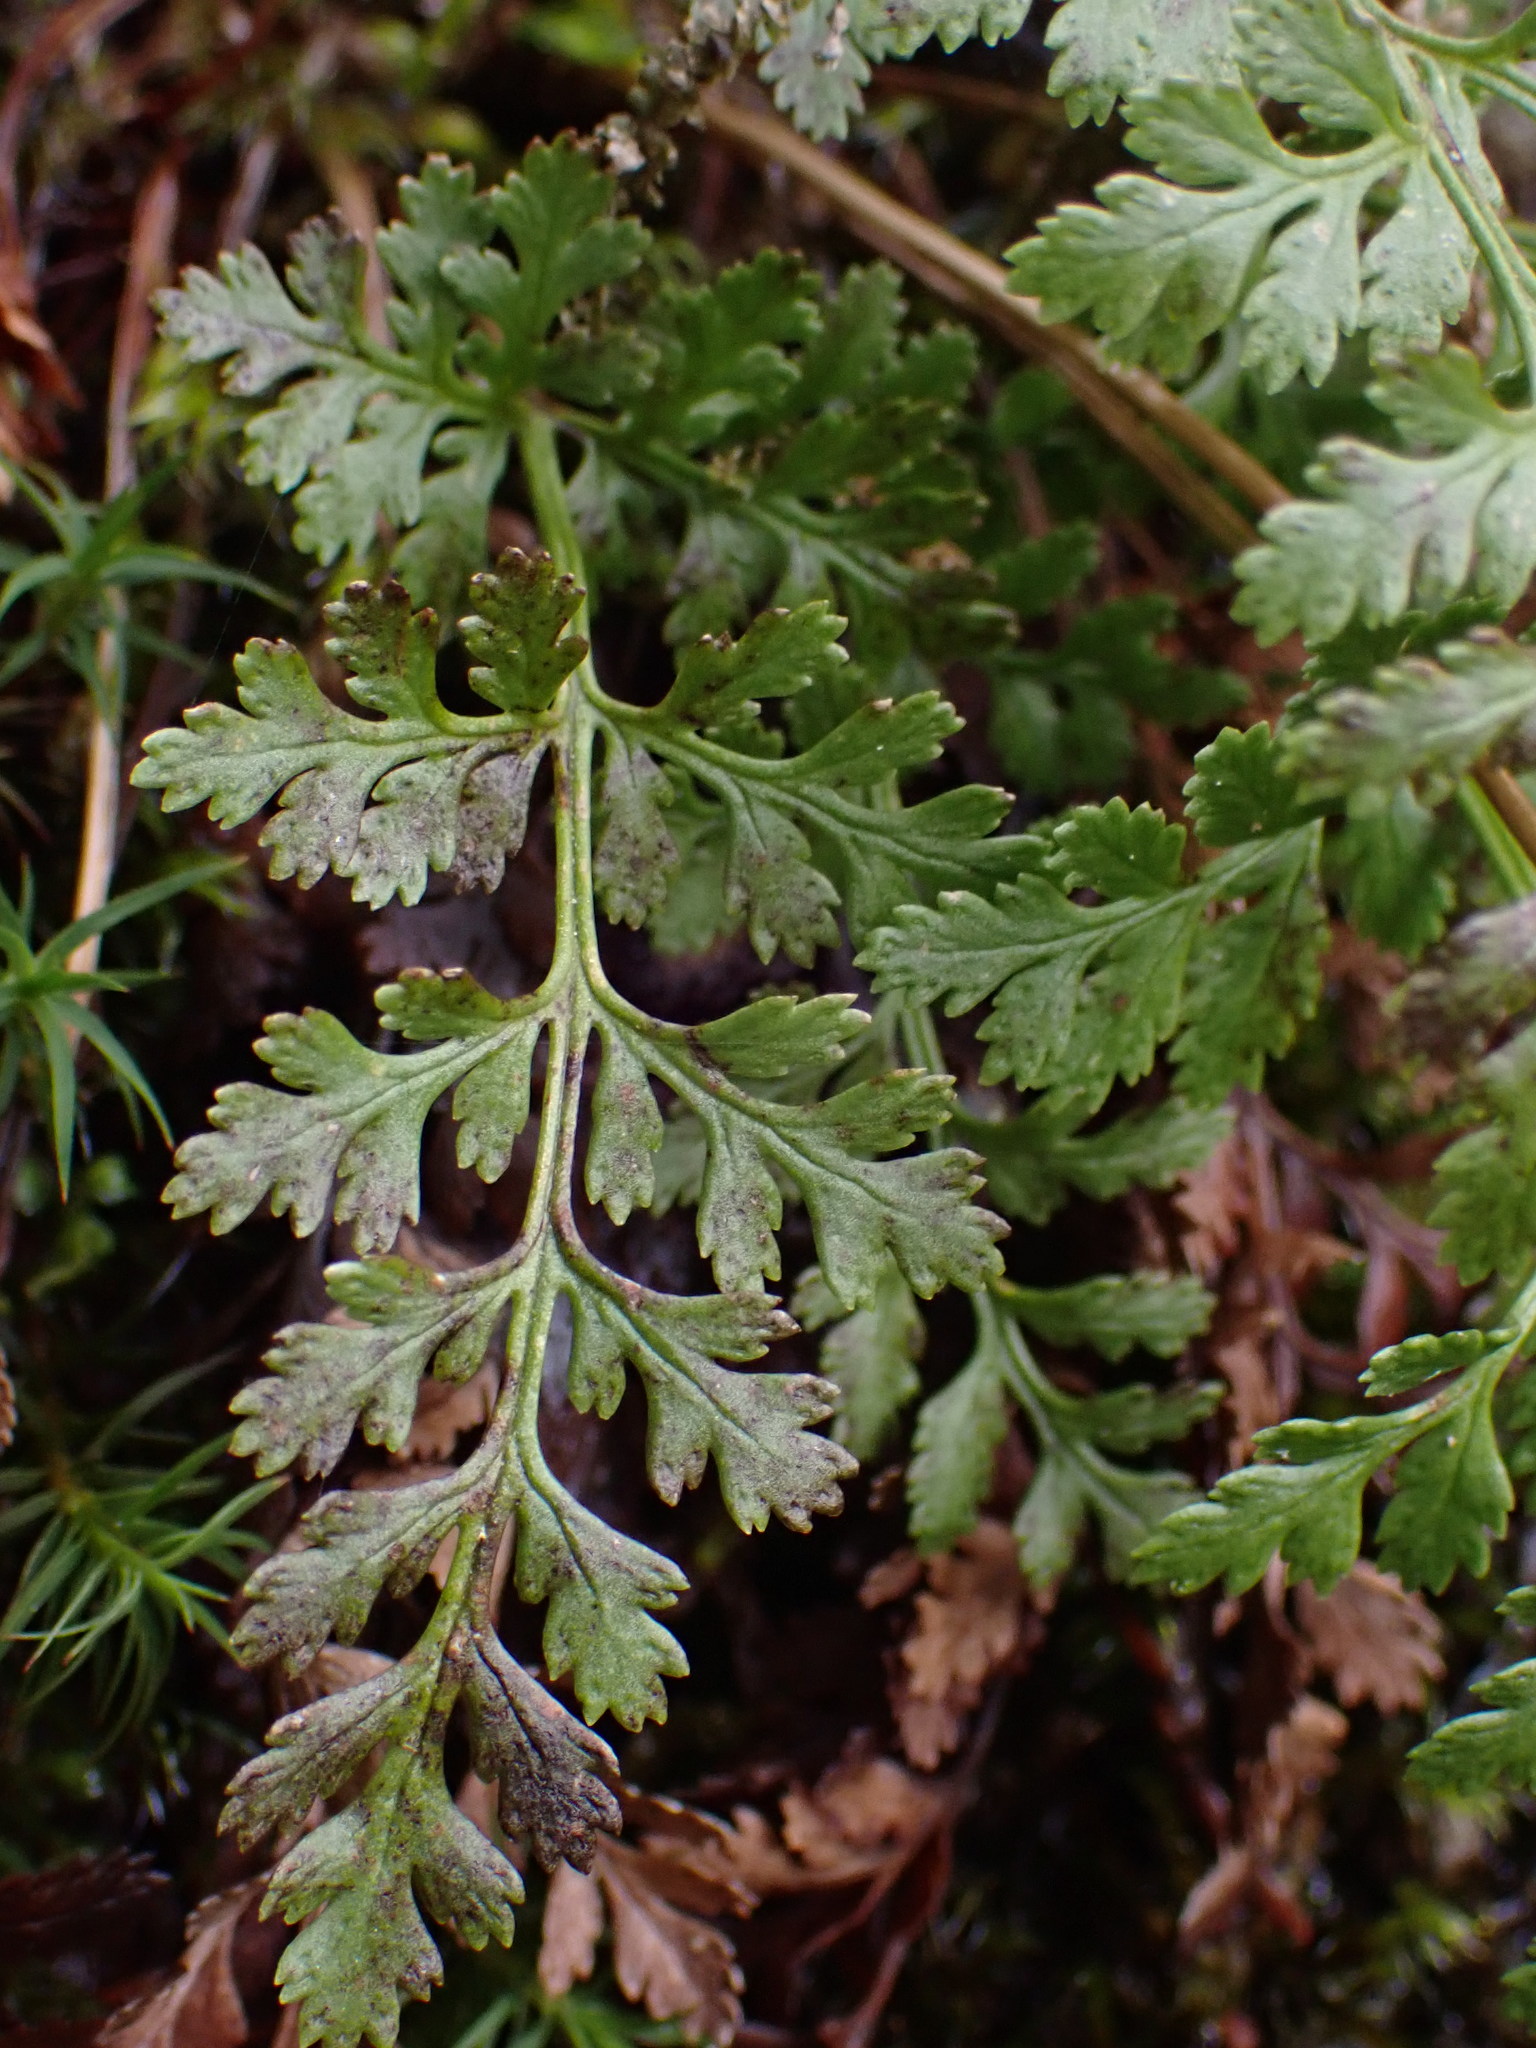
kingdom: Plantae
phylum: Tracheophyta
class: Polypodiopsida
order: Polypodiales
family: Pteridaceae
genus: Cryptogramma
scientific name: Cryptogramma acrostichoides
